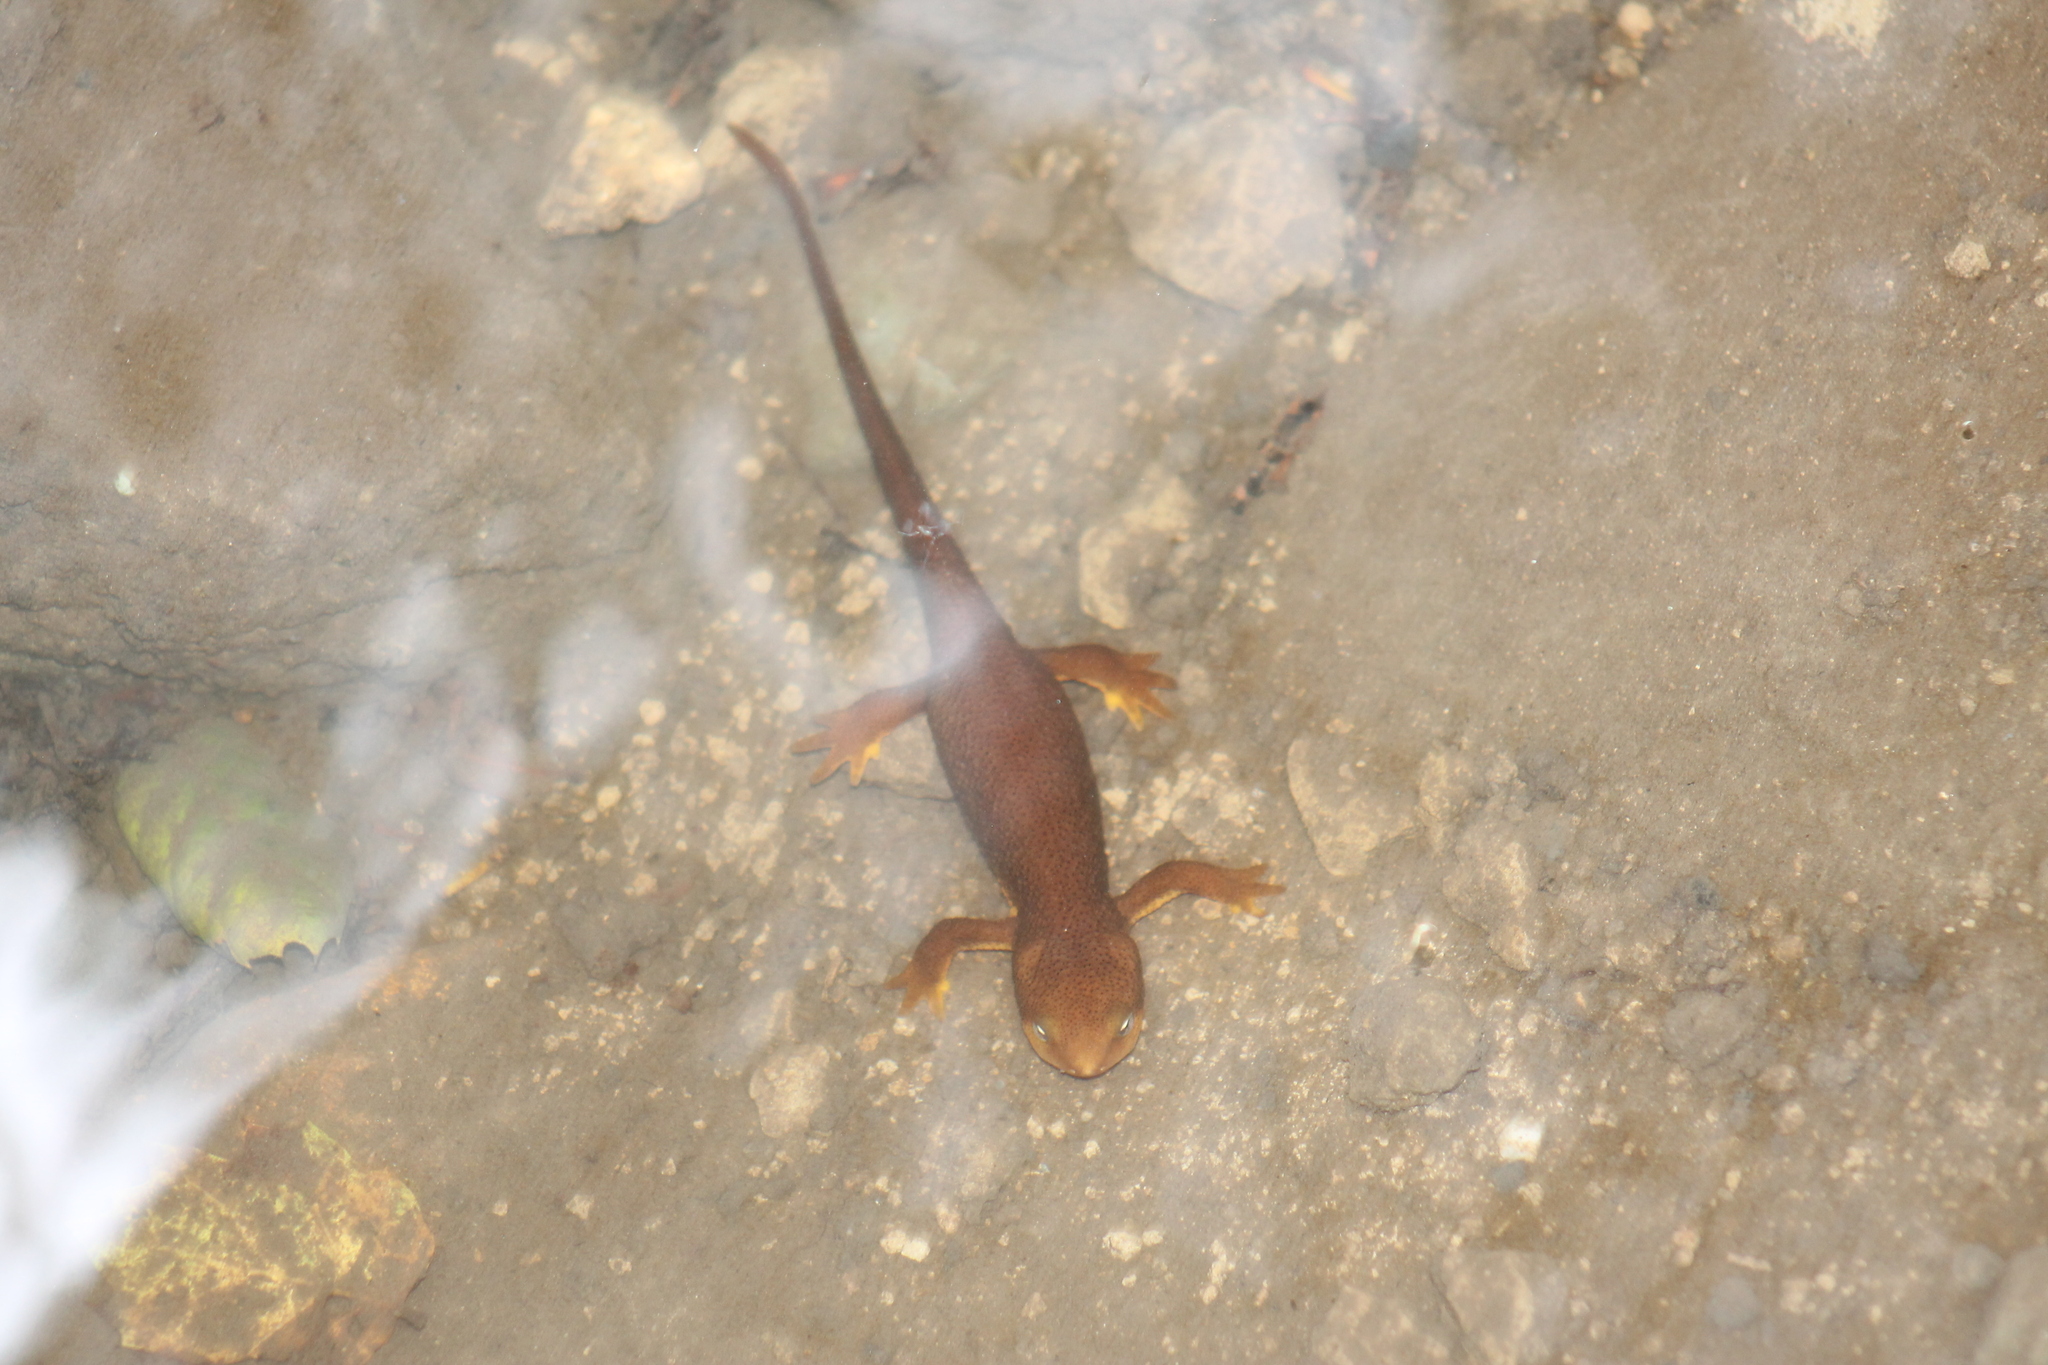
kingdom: Animalia
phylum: Chordata
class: Amphibia
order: Caudata
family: Salamandridae
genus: Taricha
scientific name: Taricha granulosa
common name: Roughskin newt
